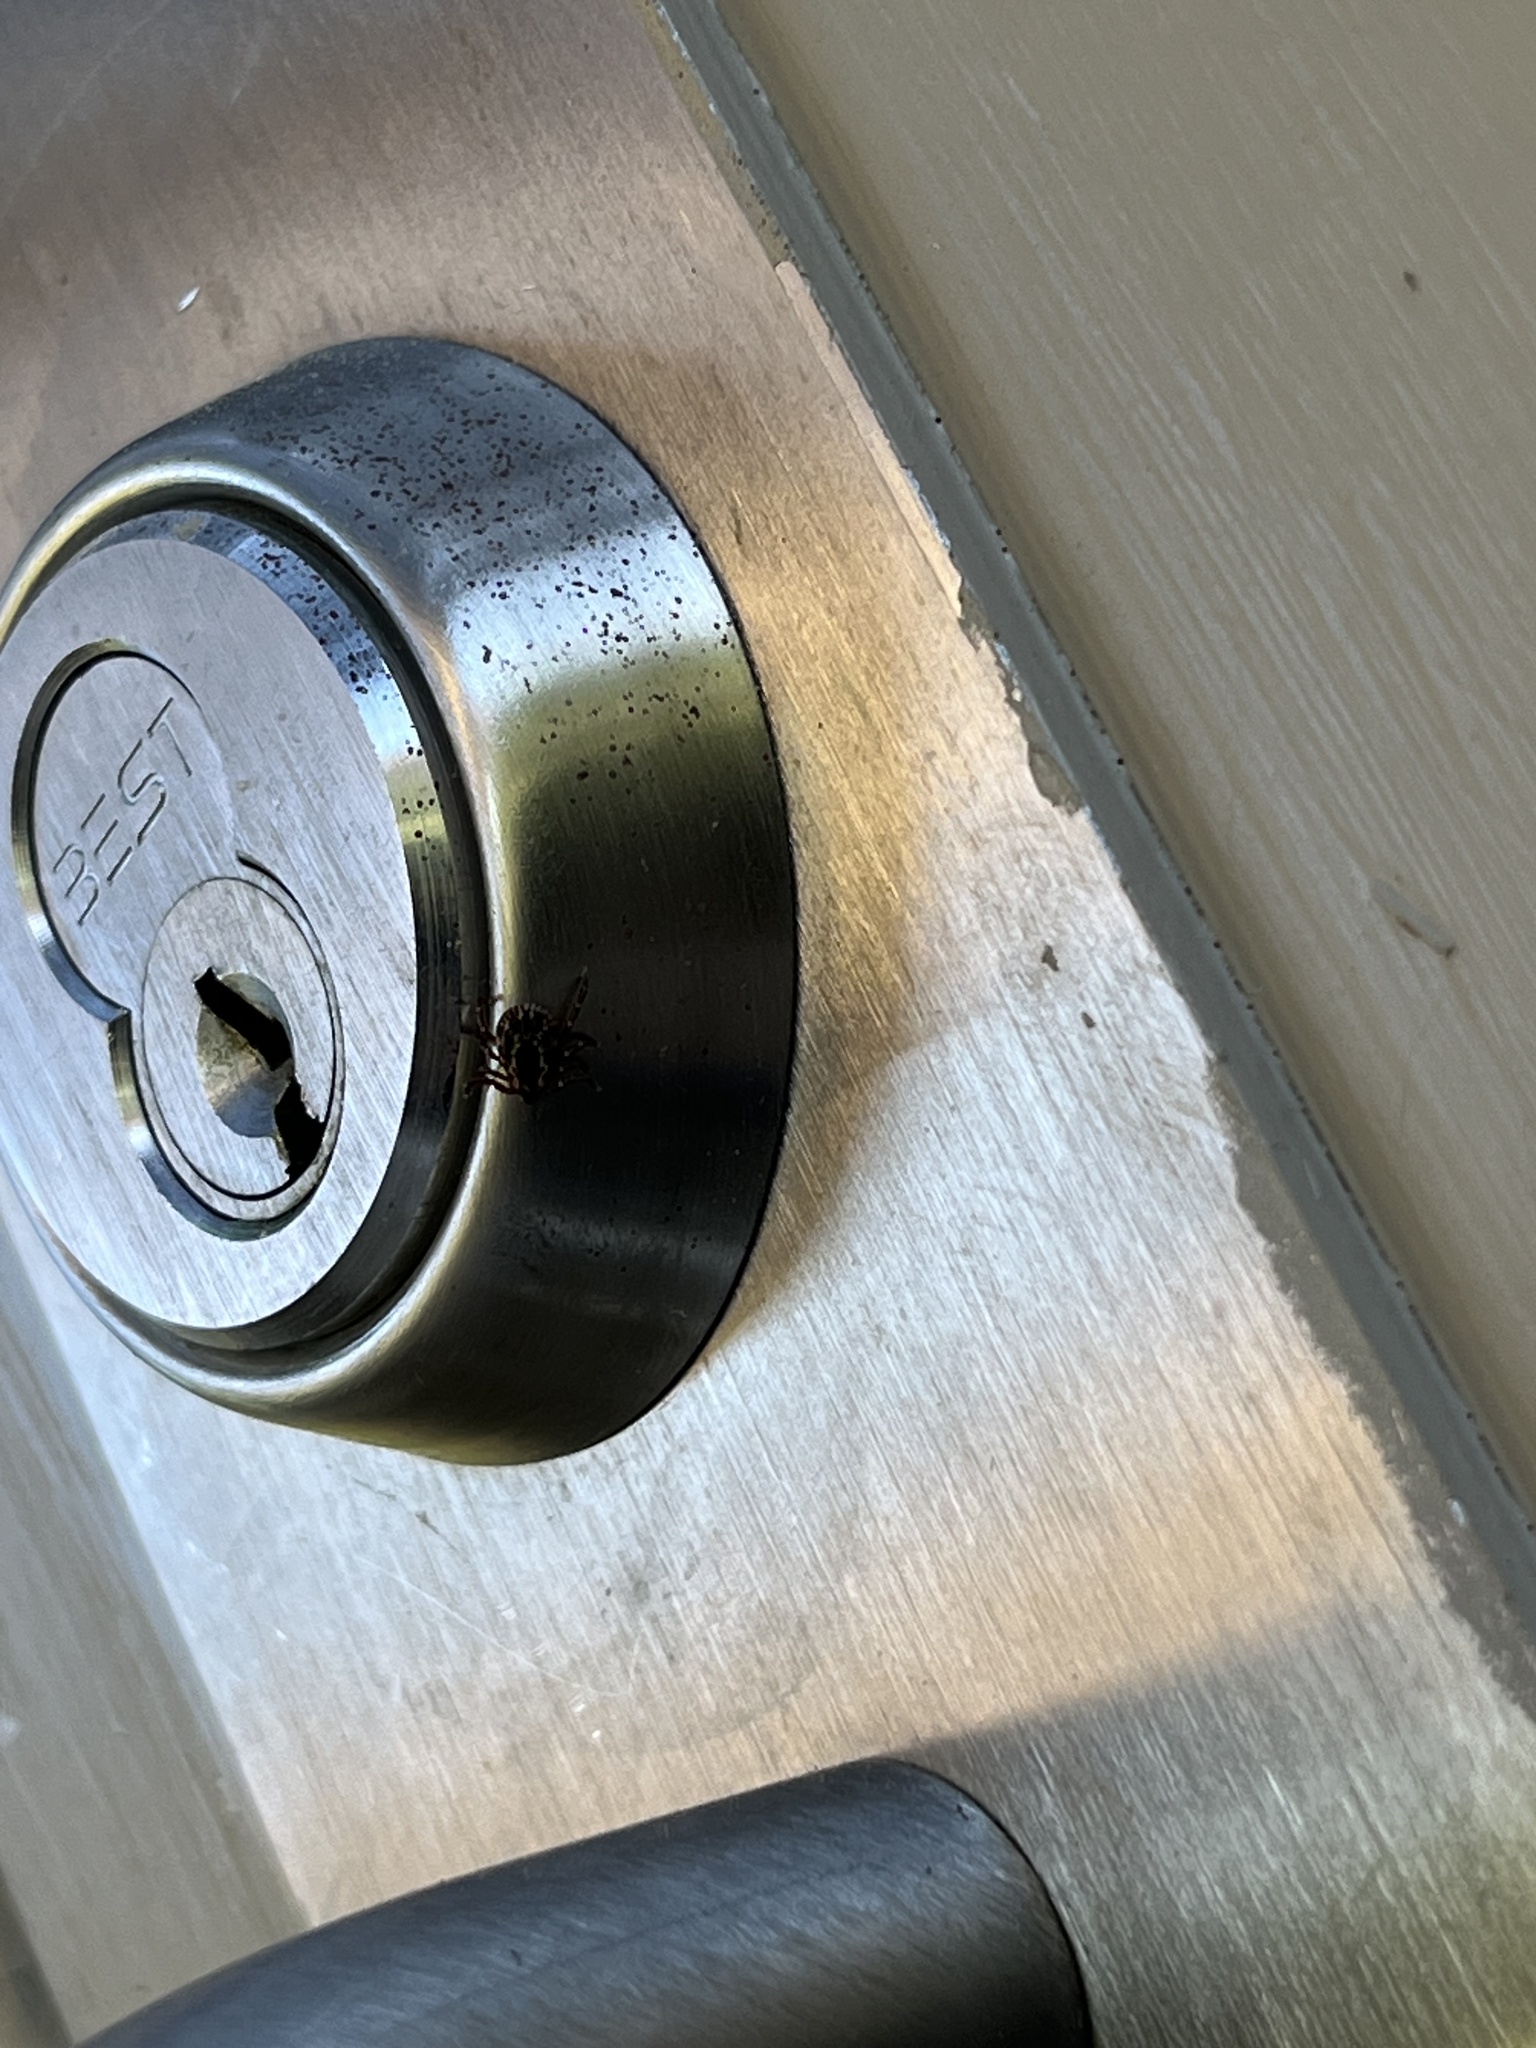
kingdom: Animalia
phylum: Arthropoda
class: Arachnida
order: Ixodida
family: Ixodidae
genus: Dermacentor
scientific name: Dermacentor variabilis
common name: American dog tick
